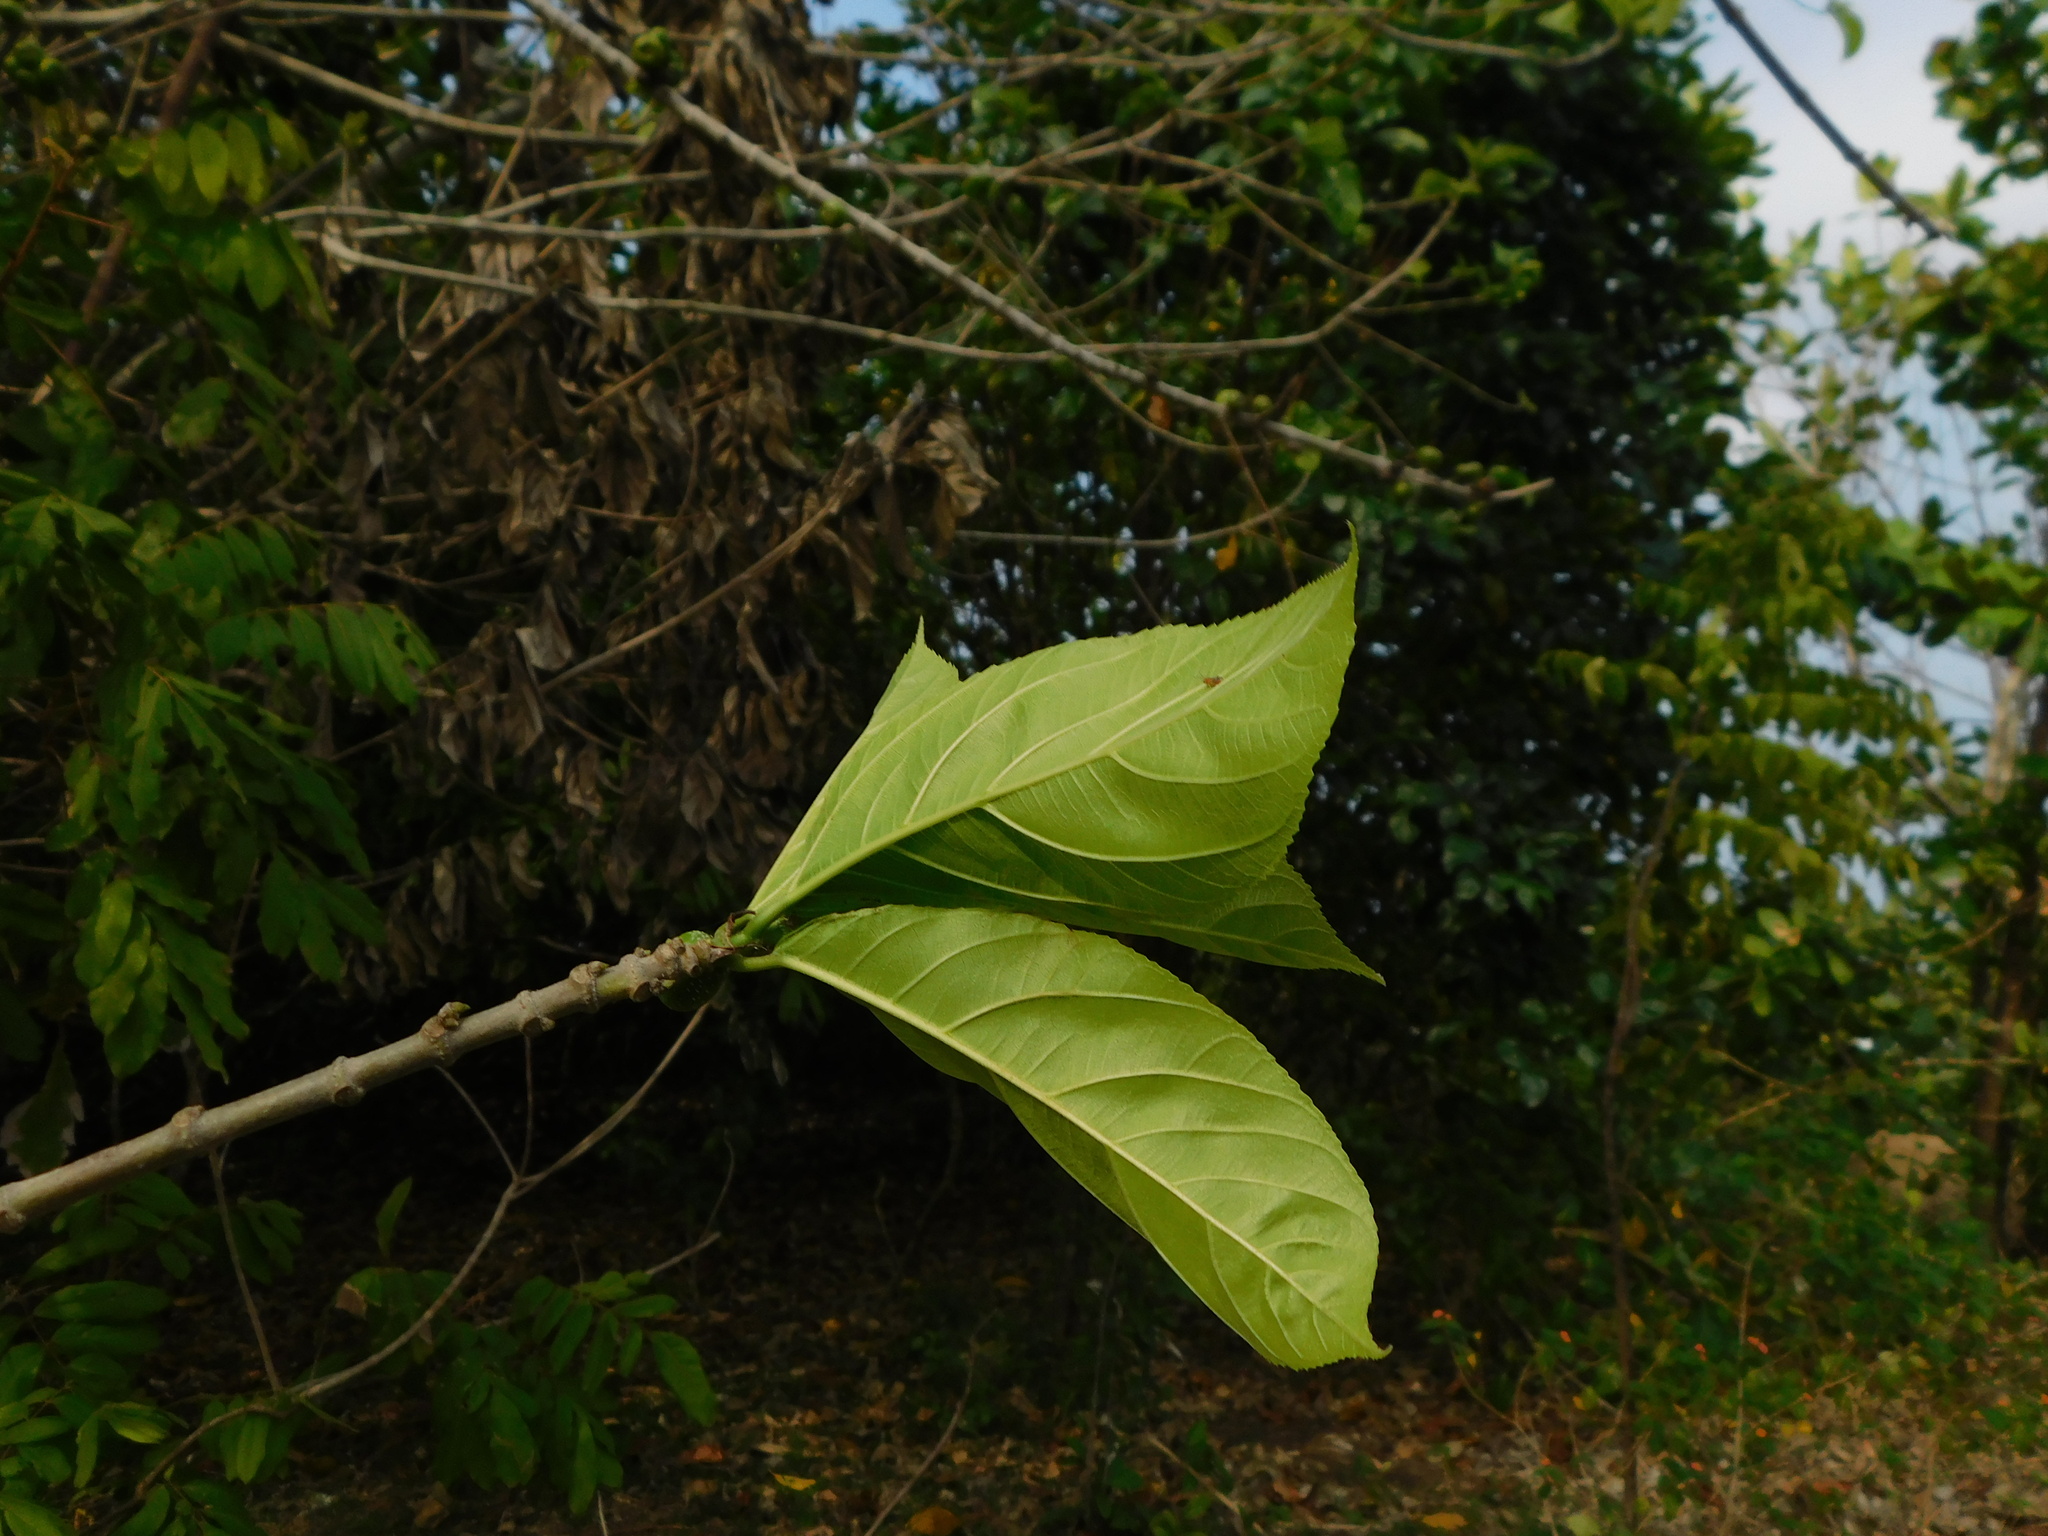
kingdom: Plantae
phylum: Tracheophyta
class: Magnoliopsida
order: Rosales
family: Moraceae
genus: Ficus
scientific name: Ficus hispida
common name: Hairy fig
